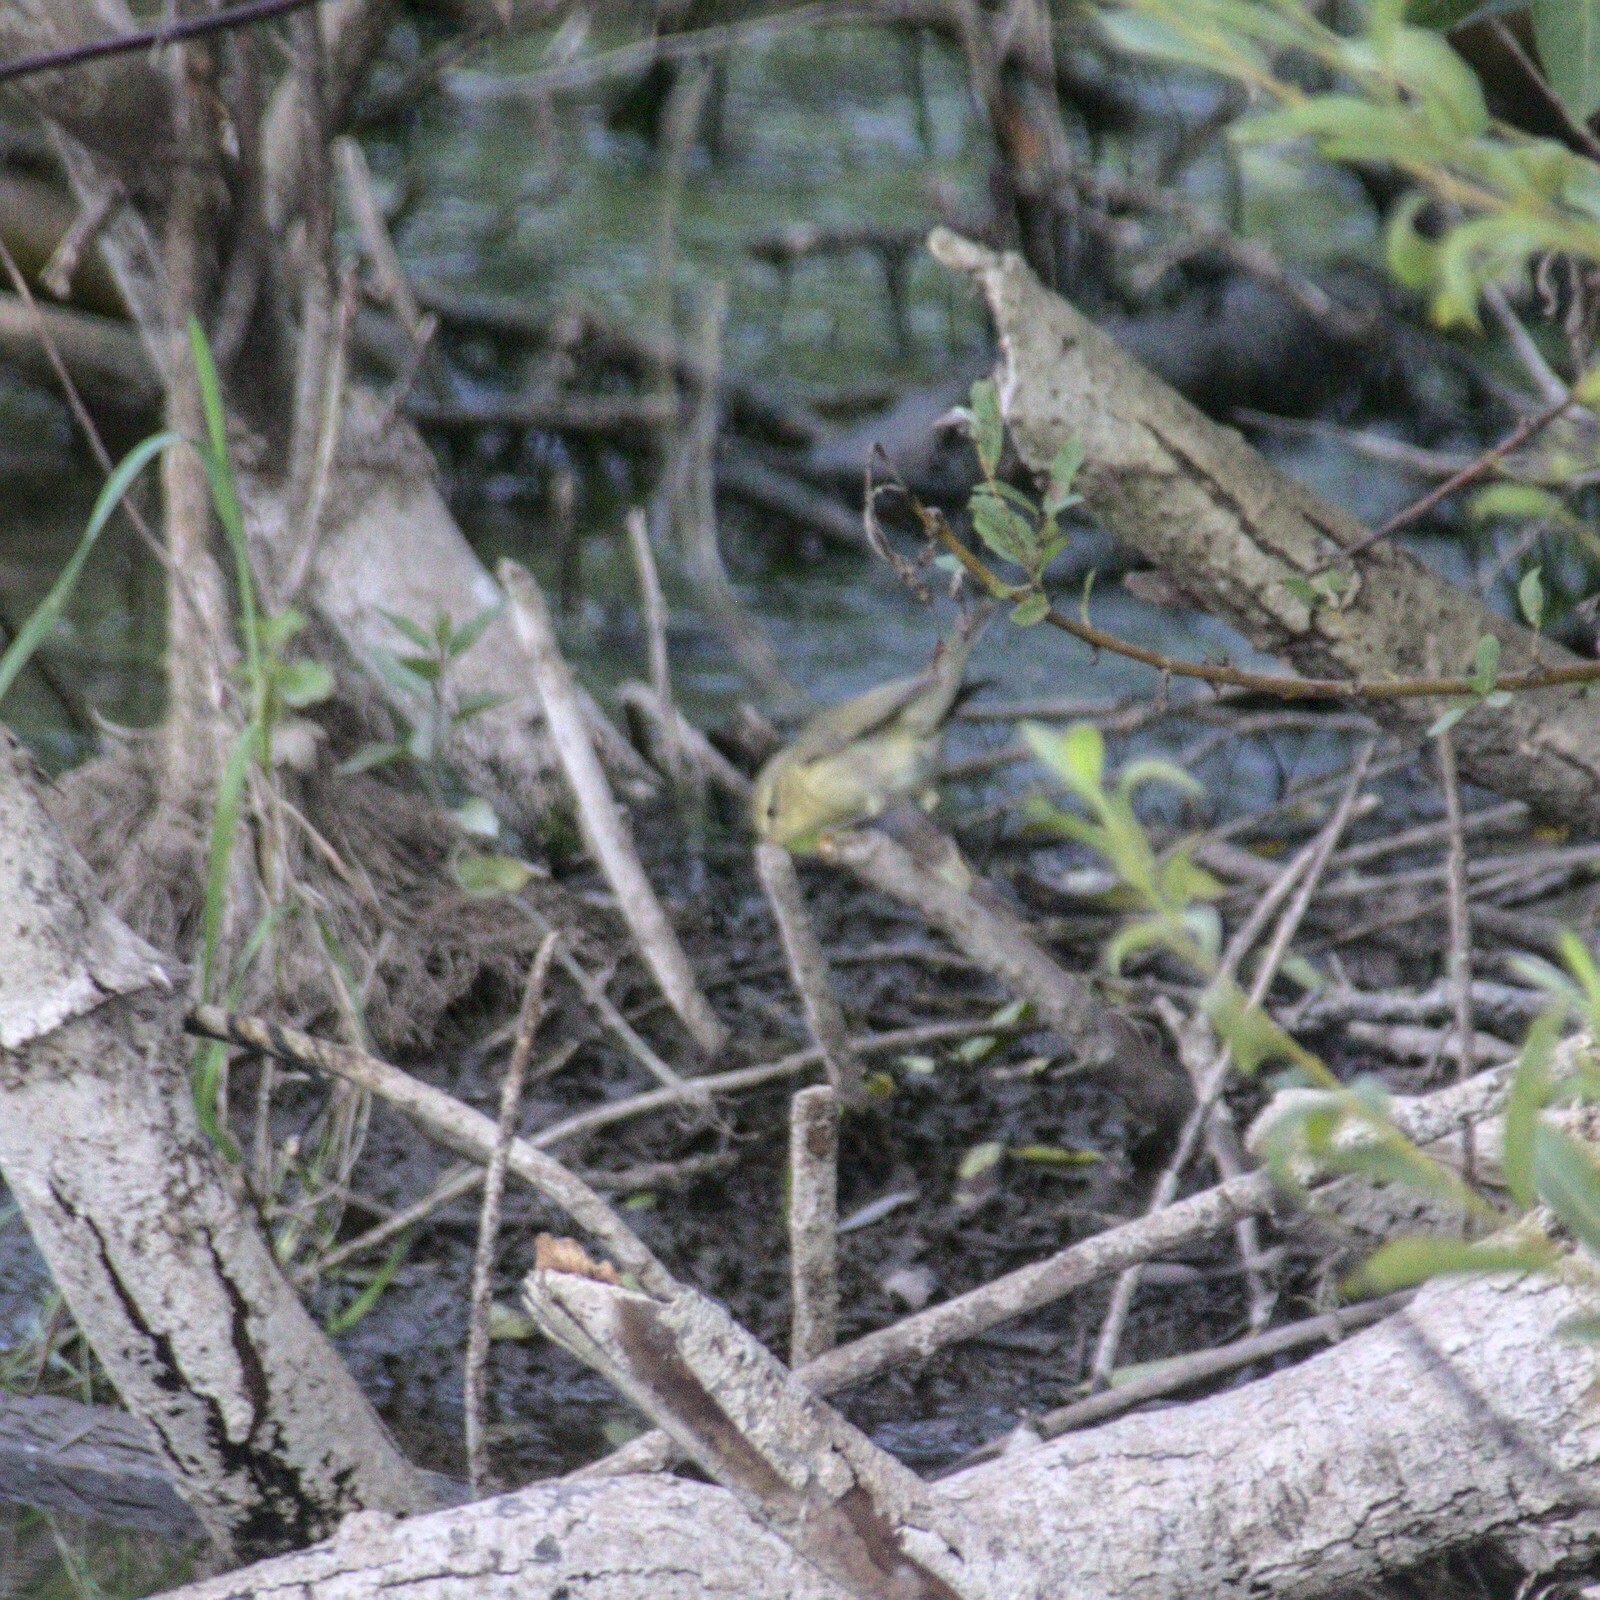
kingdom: Animalia
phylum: Chordata
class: Aves
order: Passeriformes
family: Phylloscopidae
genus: Phylloscopus
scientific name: Phylloscopus trochilus
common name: Willow warbler
